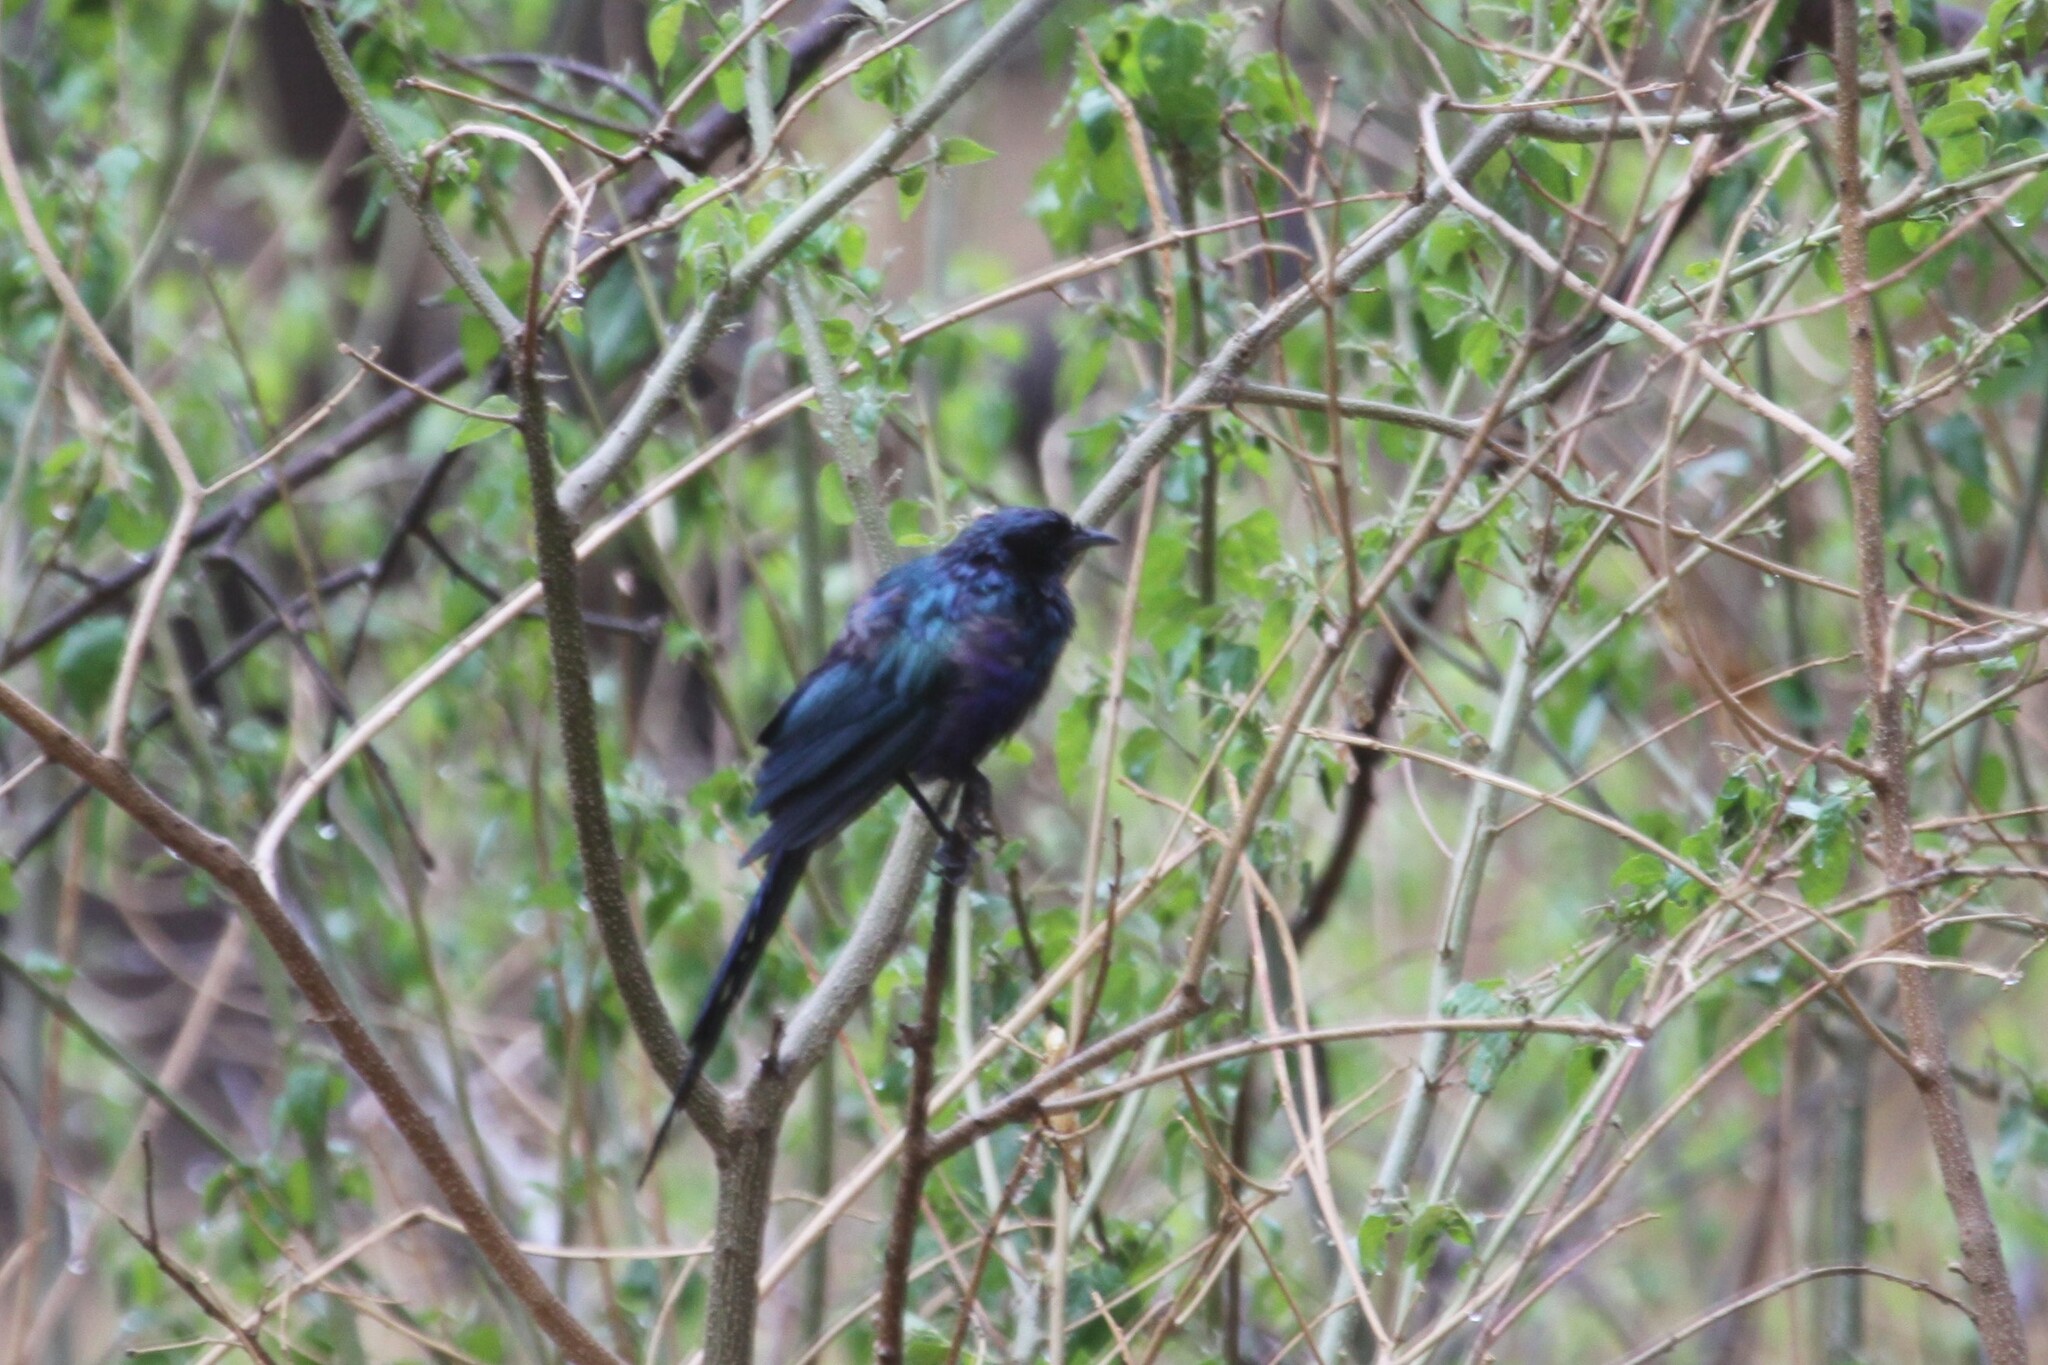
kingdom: Animalia
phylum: Chordata
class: Aves
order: Passeriformes
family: Sturnidae
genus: Lamprotornis
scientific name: Lamprotornis mevesii
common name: Meves's starling
